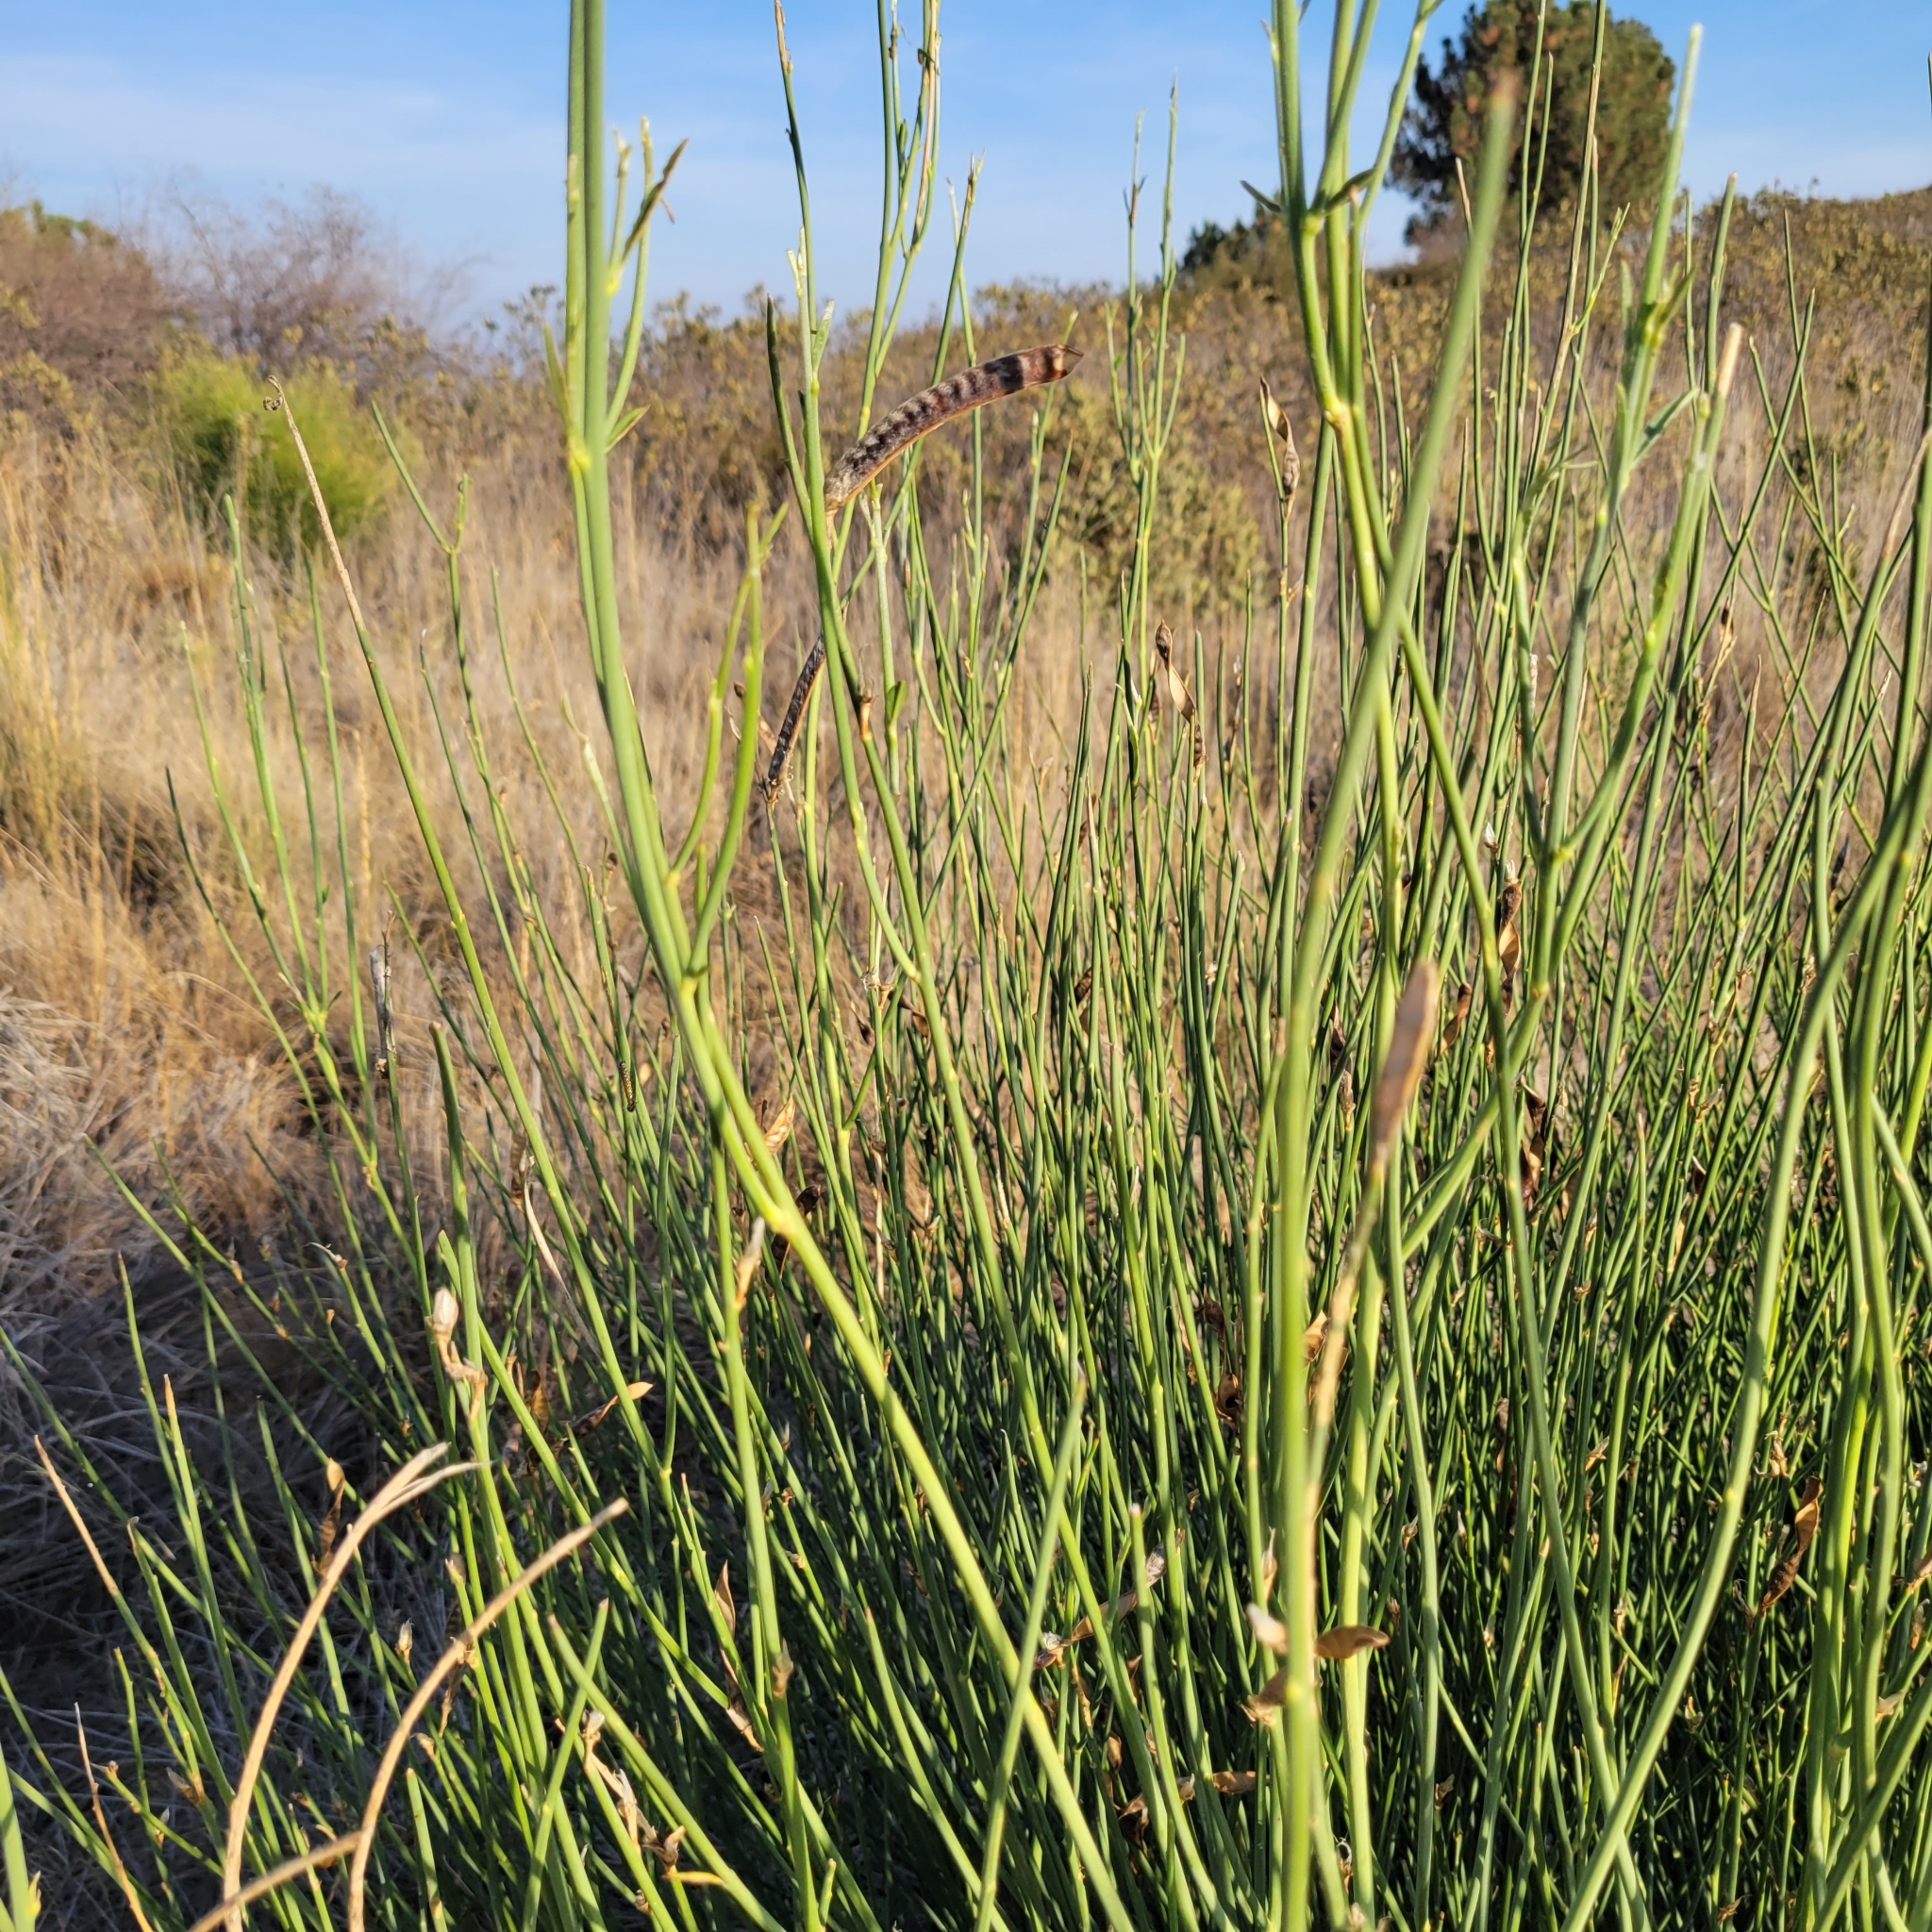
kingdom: Plantae
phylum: Tracheophyta
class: Magnoliopsida
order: Fabales
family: Fabaceae
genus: Spartium
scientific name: Spartium junceum
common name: Spanish broom
